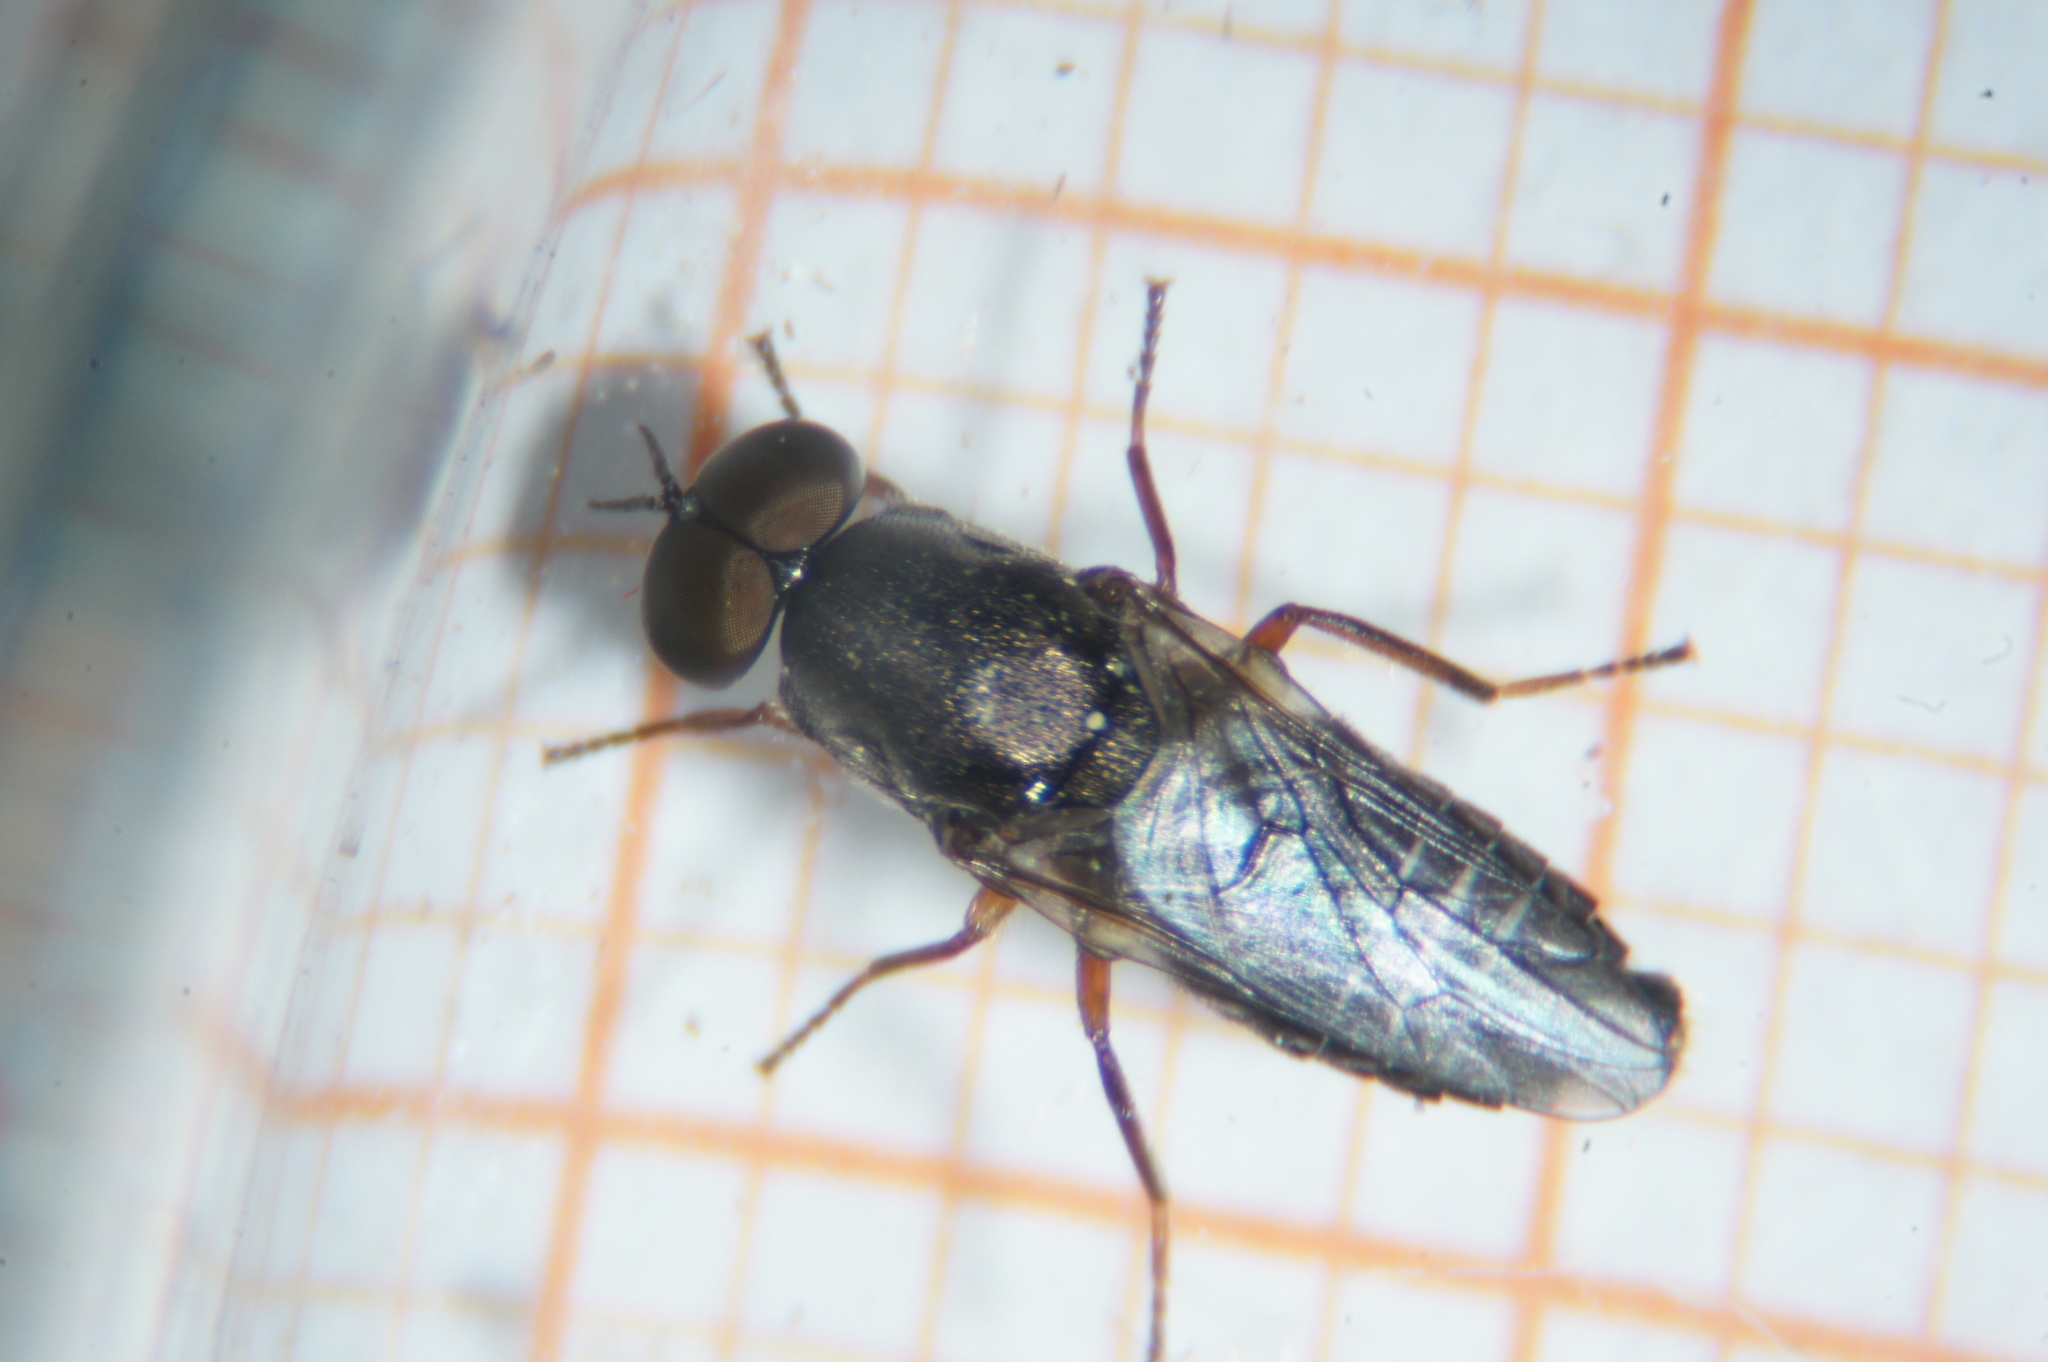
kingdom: Animalia
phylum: Arthropoda
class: Insecta
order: Diptera
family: Scenopinidae
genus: Scenopinus
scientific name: Scenopinus fenestralis
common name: House windowfly
